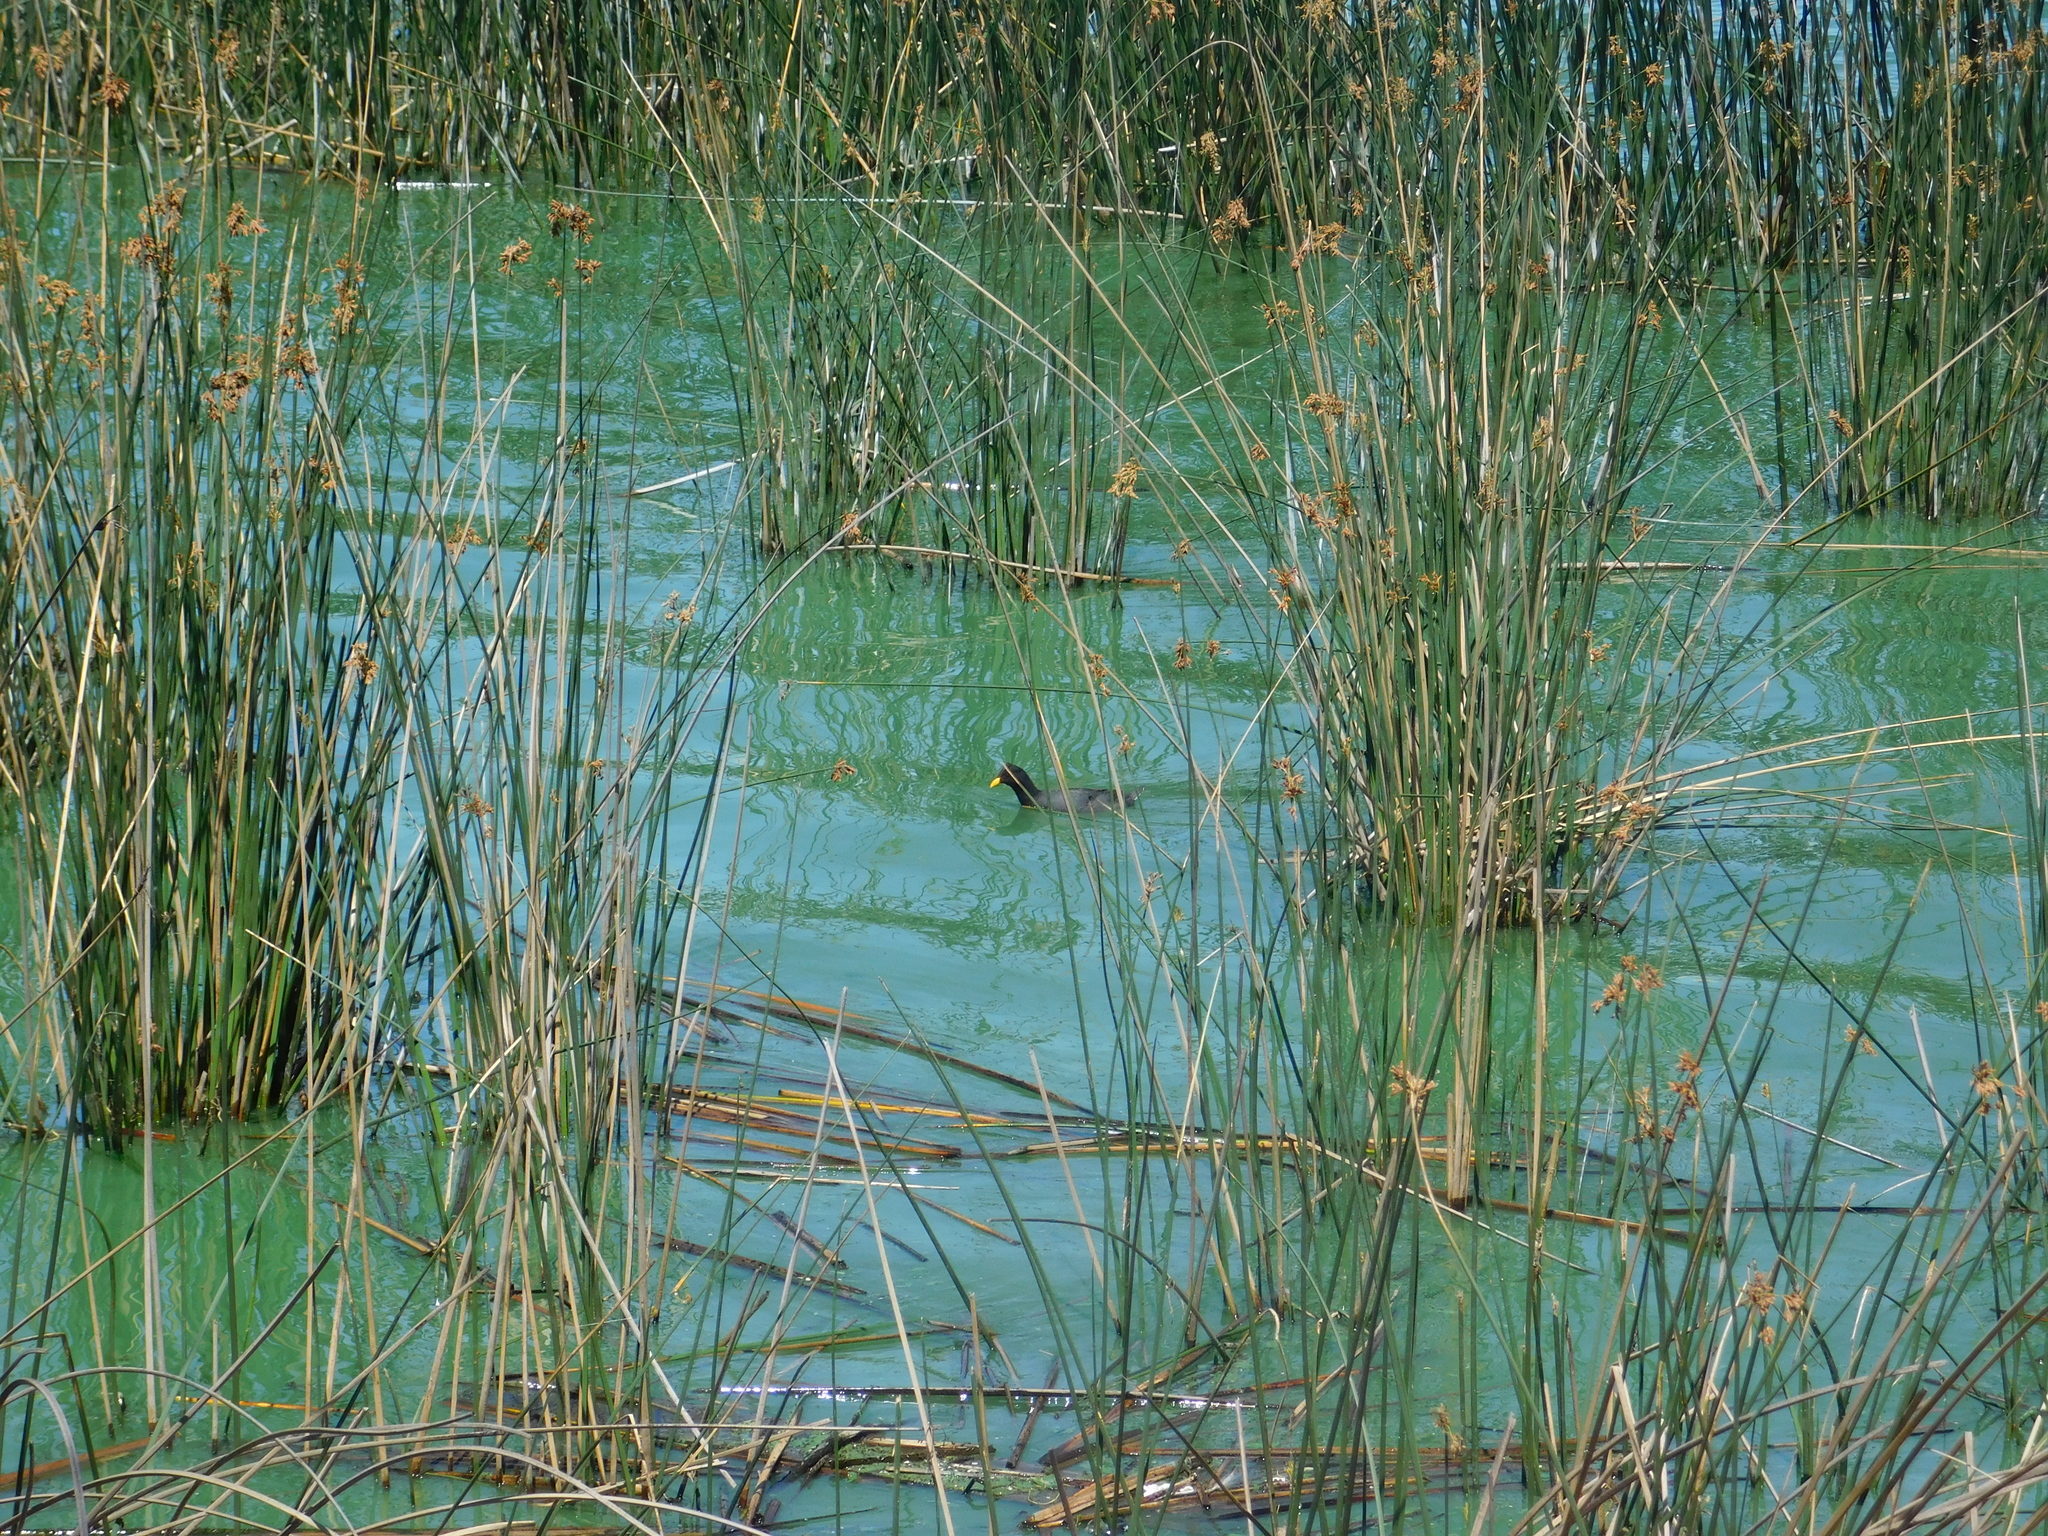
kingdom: Animalia
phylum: Chordata
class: Aves
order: Gruiformes
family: Rallidae
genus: Fulica
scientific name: Fulica rufifrons
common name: Red-fronted coot
